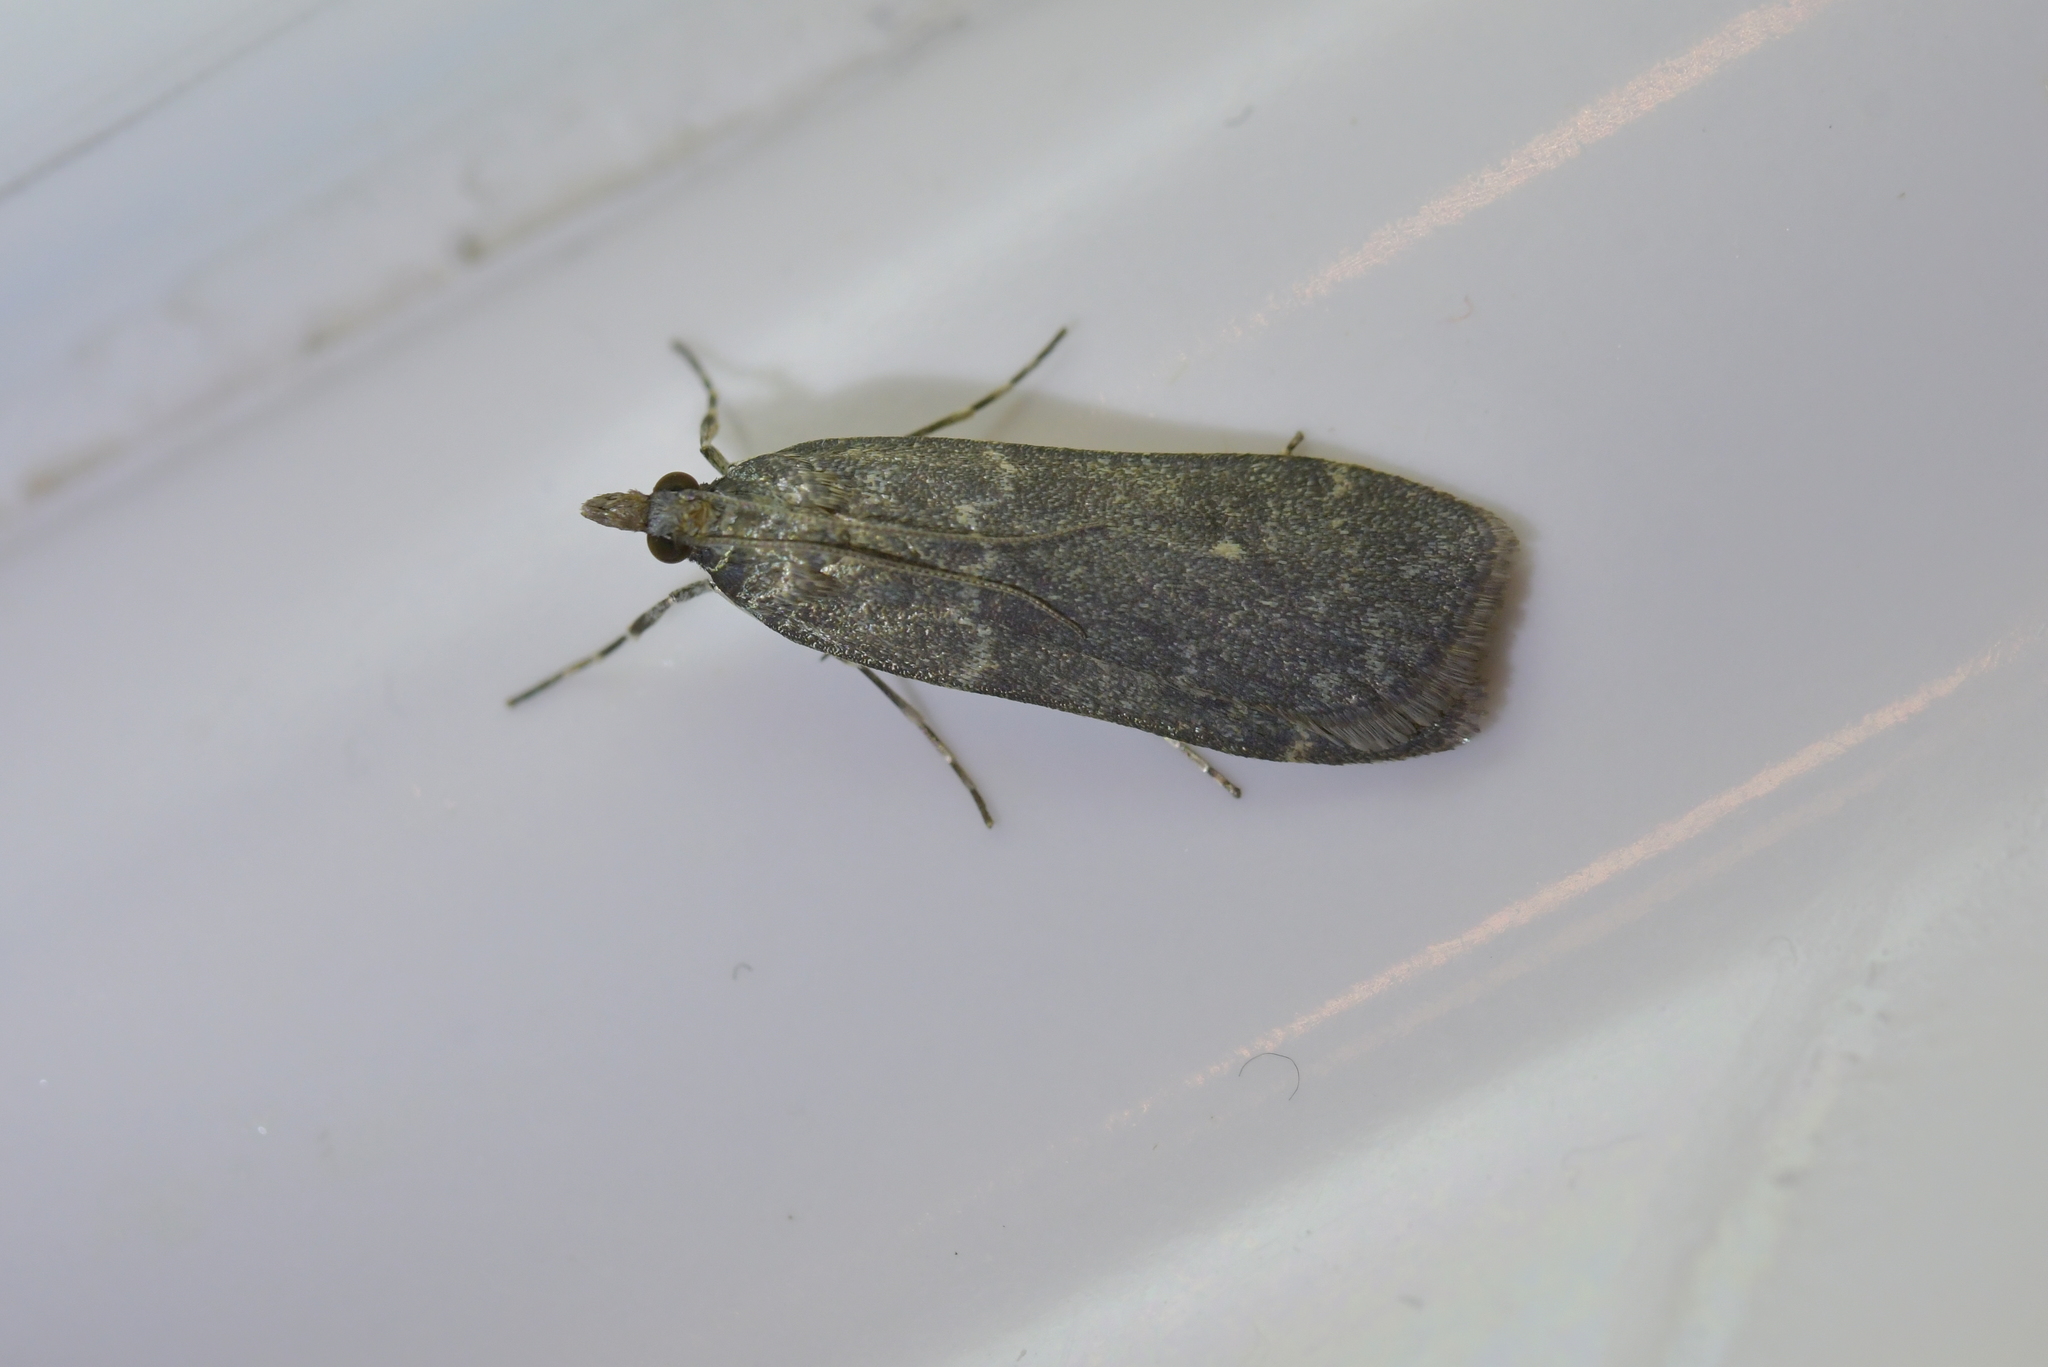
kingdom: Animalia
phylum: Arthropoda
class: Insecta
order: Lepidoptera
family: Crambidae
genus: Eudonia
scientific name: Eudonia cataxesta
